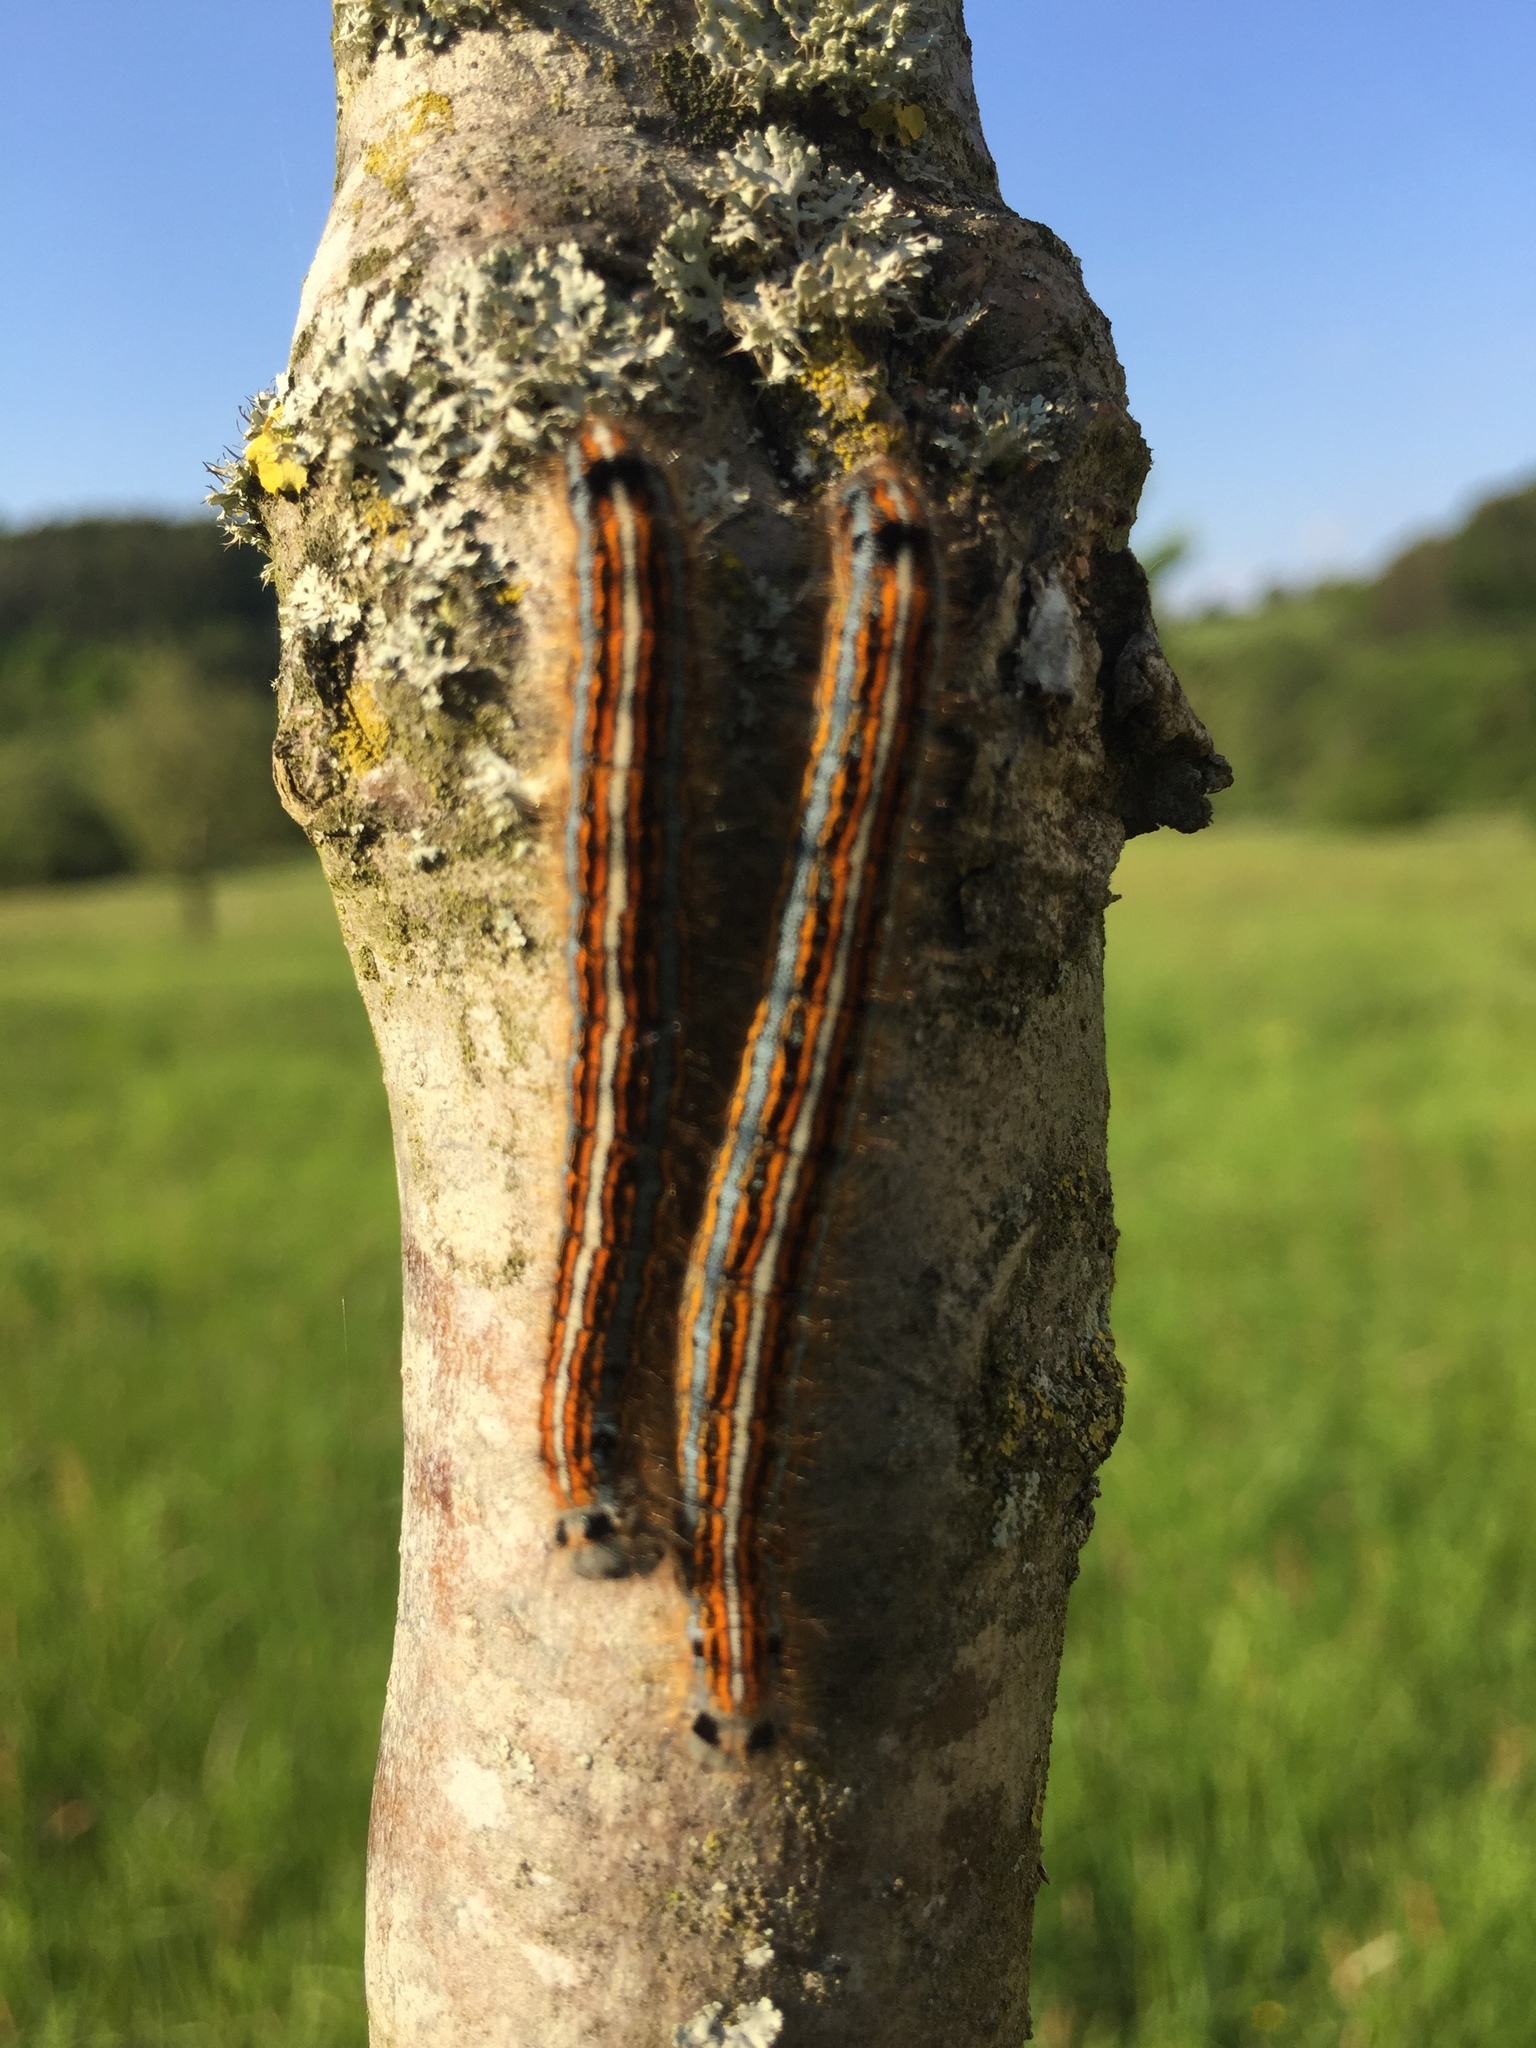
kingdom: Animalia
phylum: Arthropoda
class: Insecta
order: Lepidoptera
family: Lasiocampidae
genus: Malacosoma
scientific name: Malacosoma neustria
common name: The lackey
